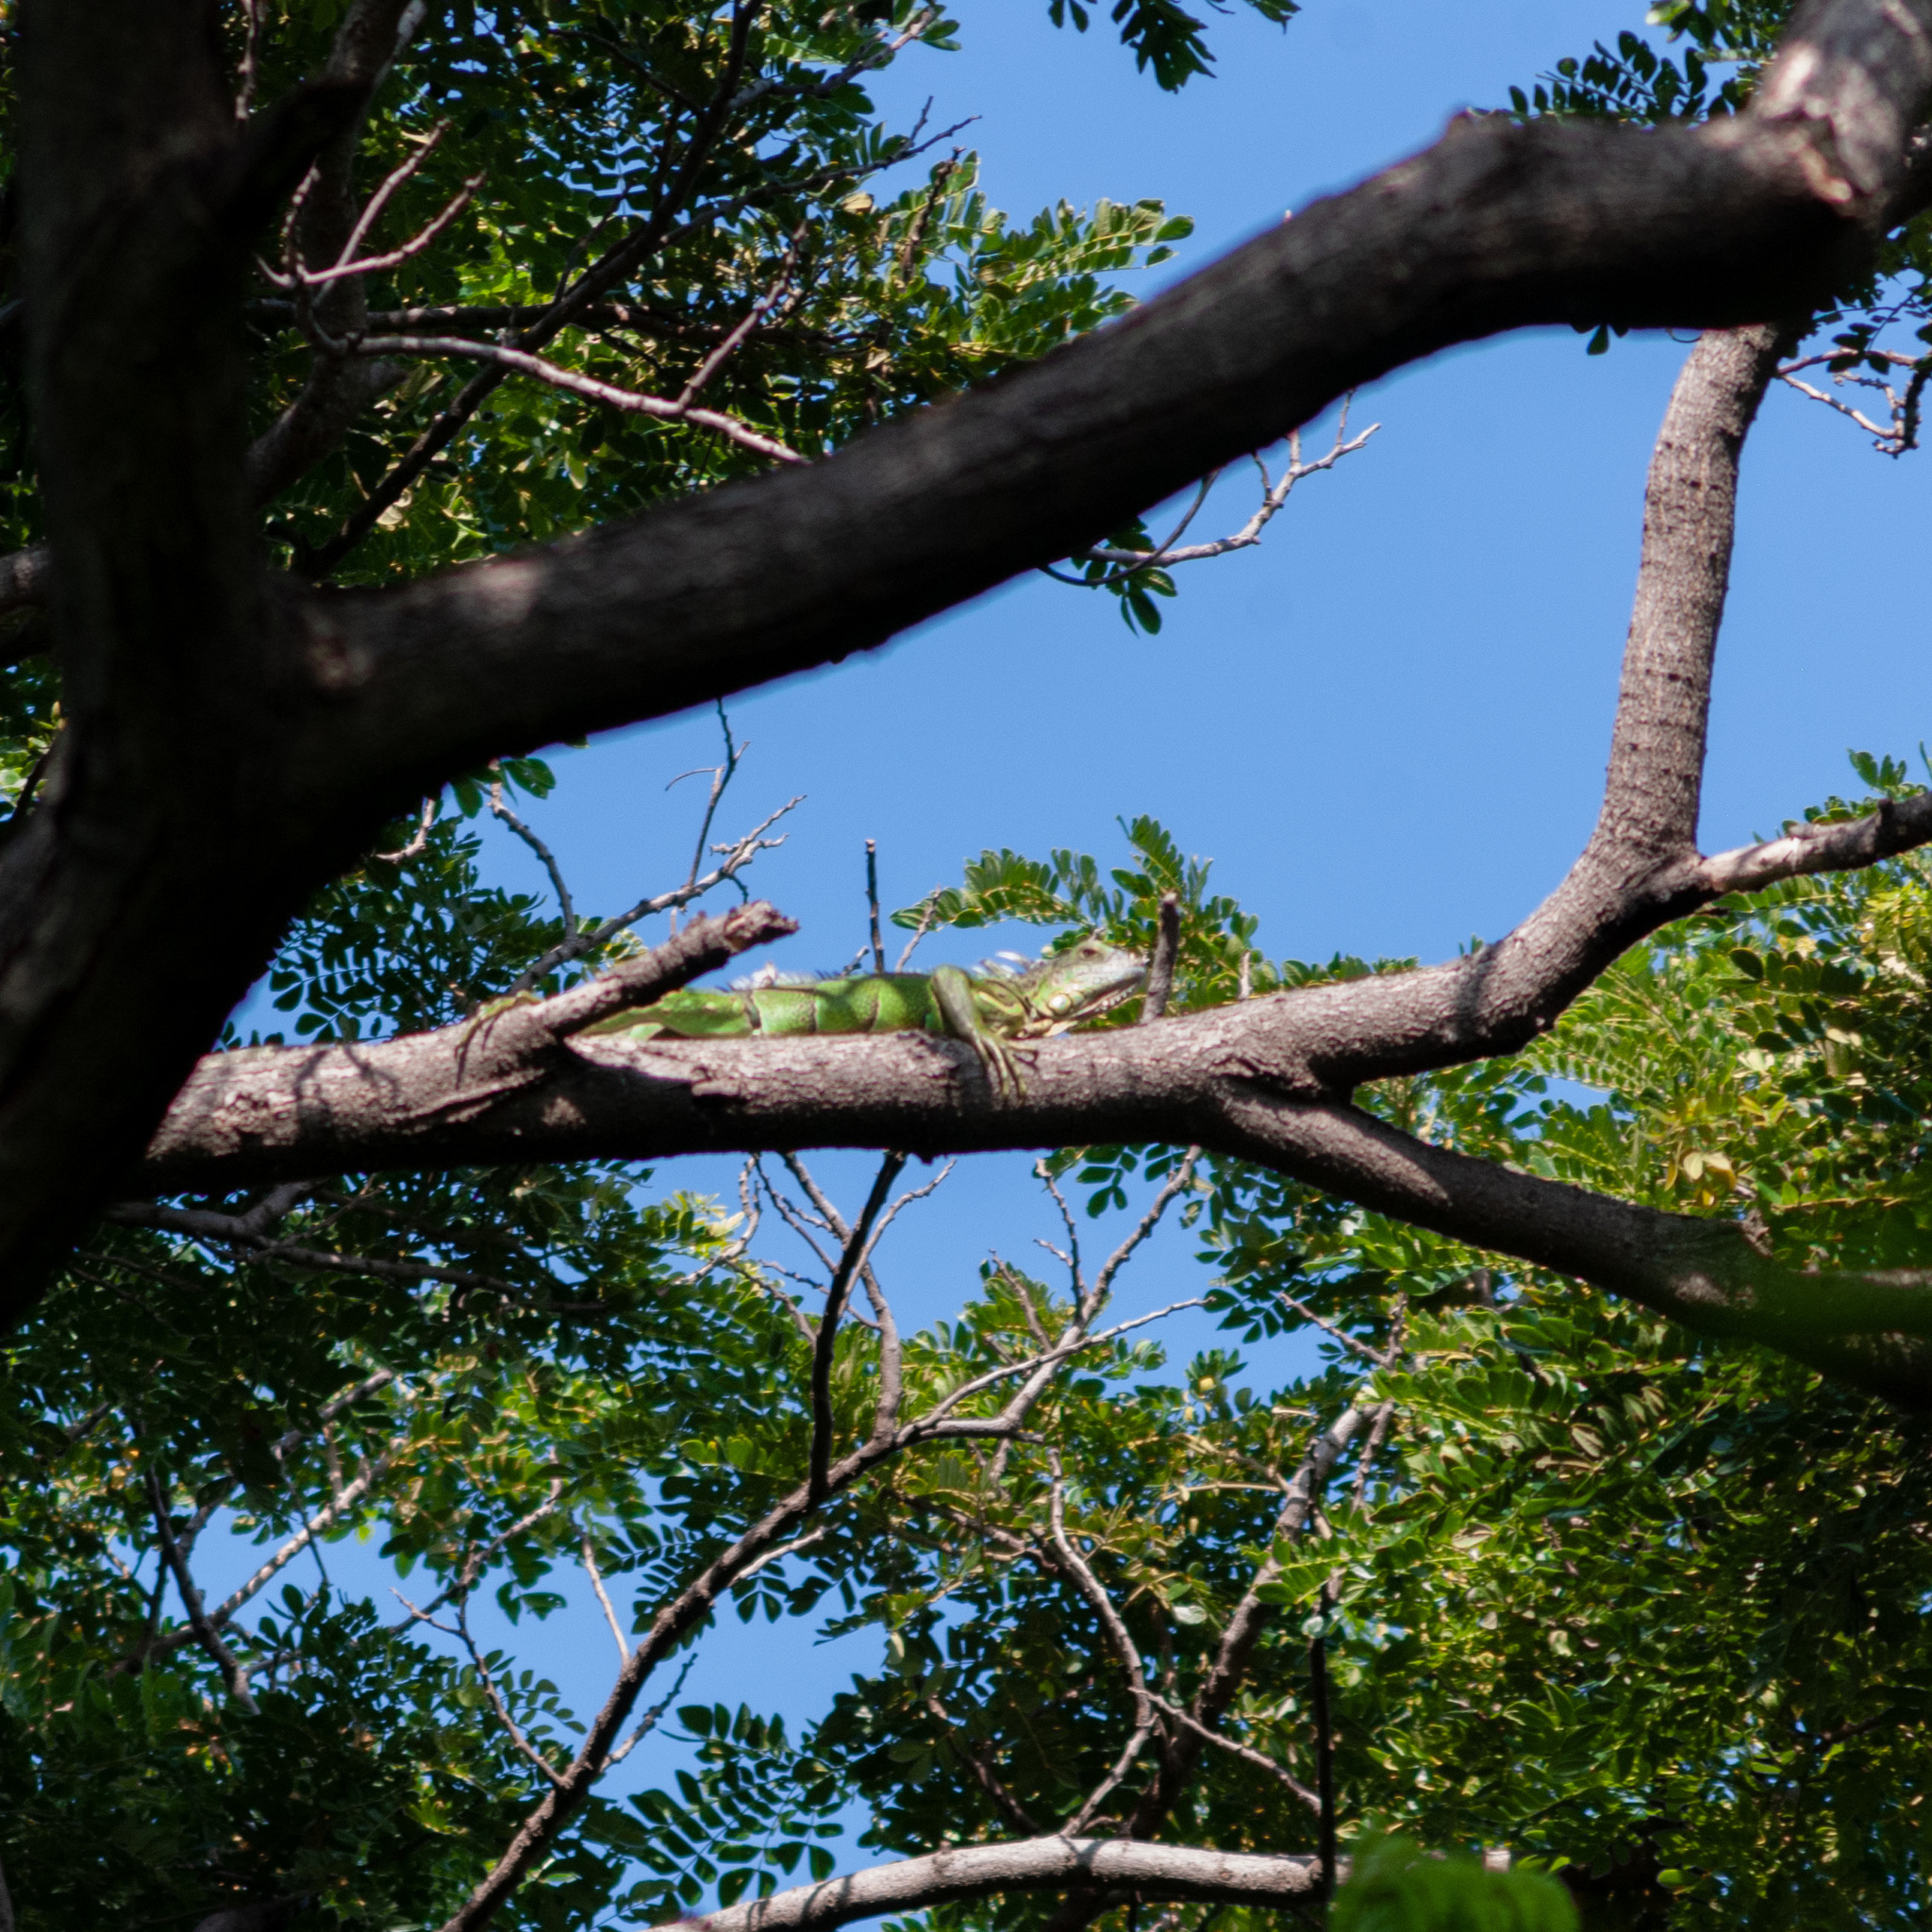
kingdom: Animalia
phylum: Chordata
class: Squamata
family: Iguanidae
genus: Iguana
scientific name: Iguana iguana
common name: Green iguana
